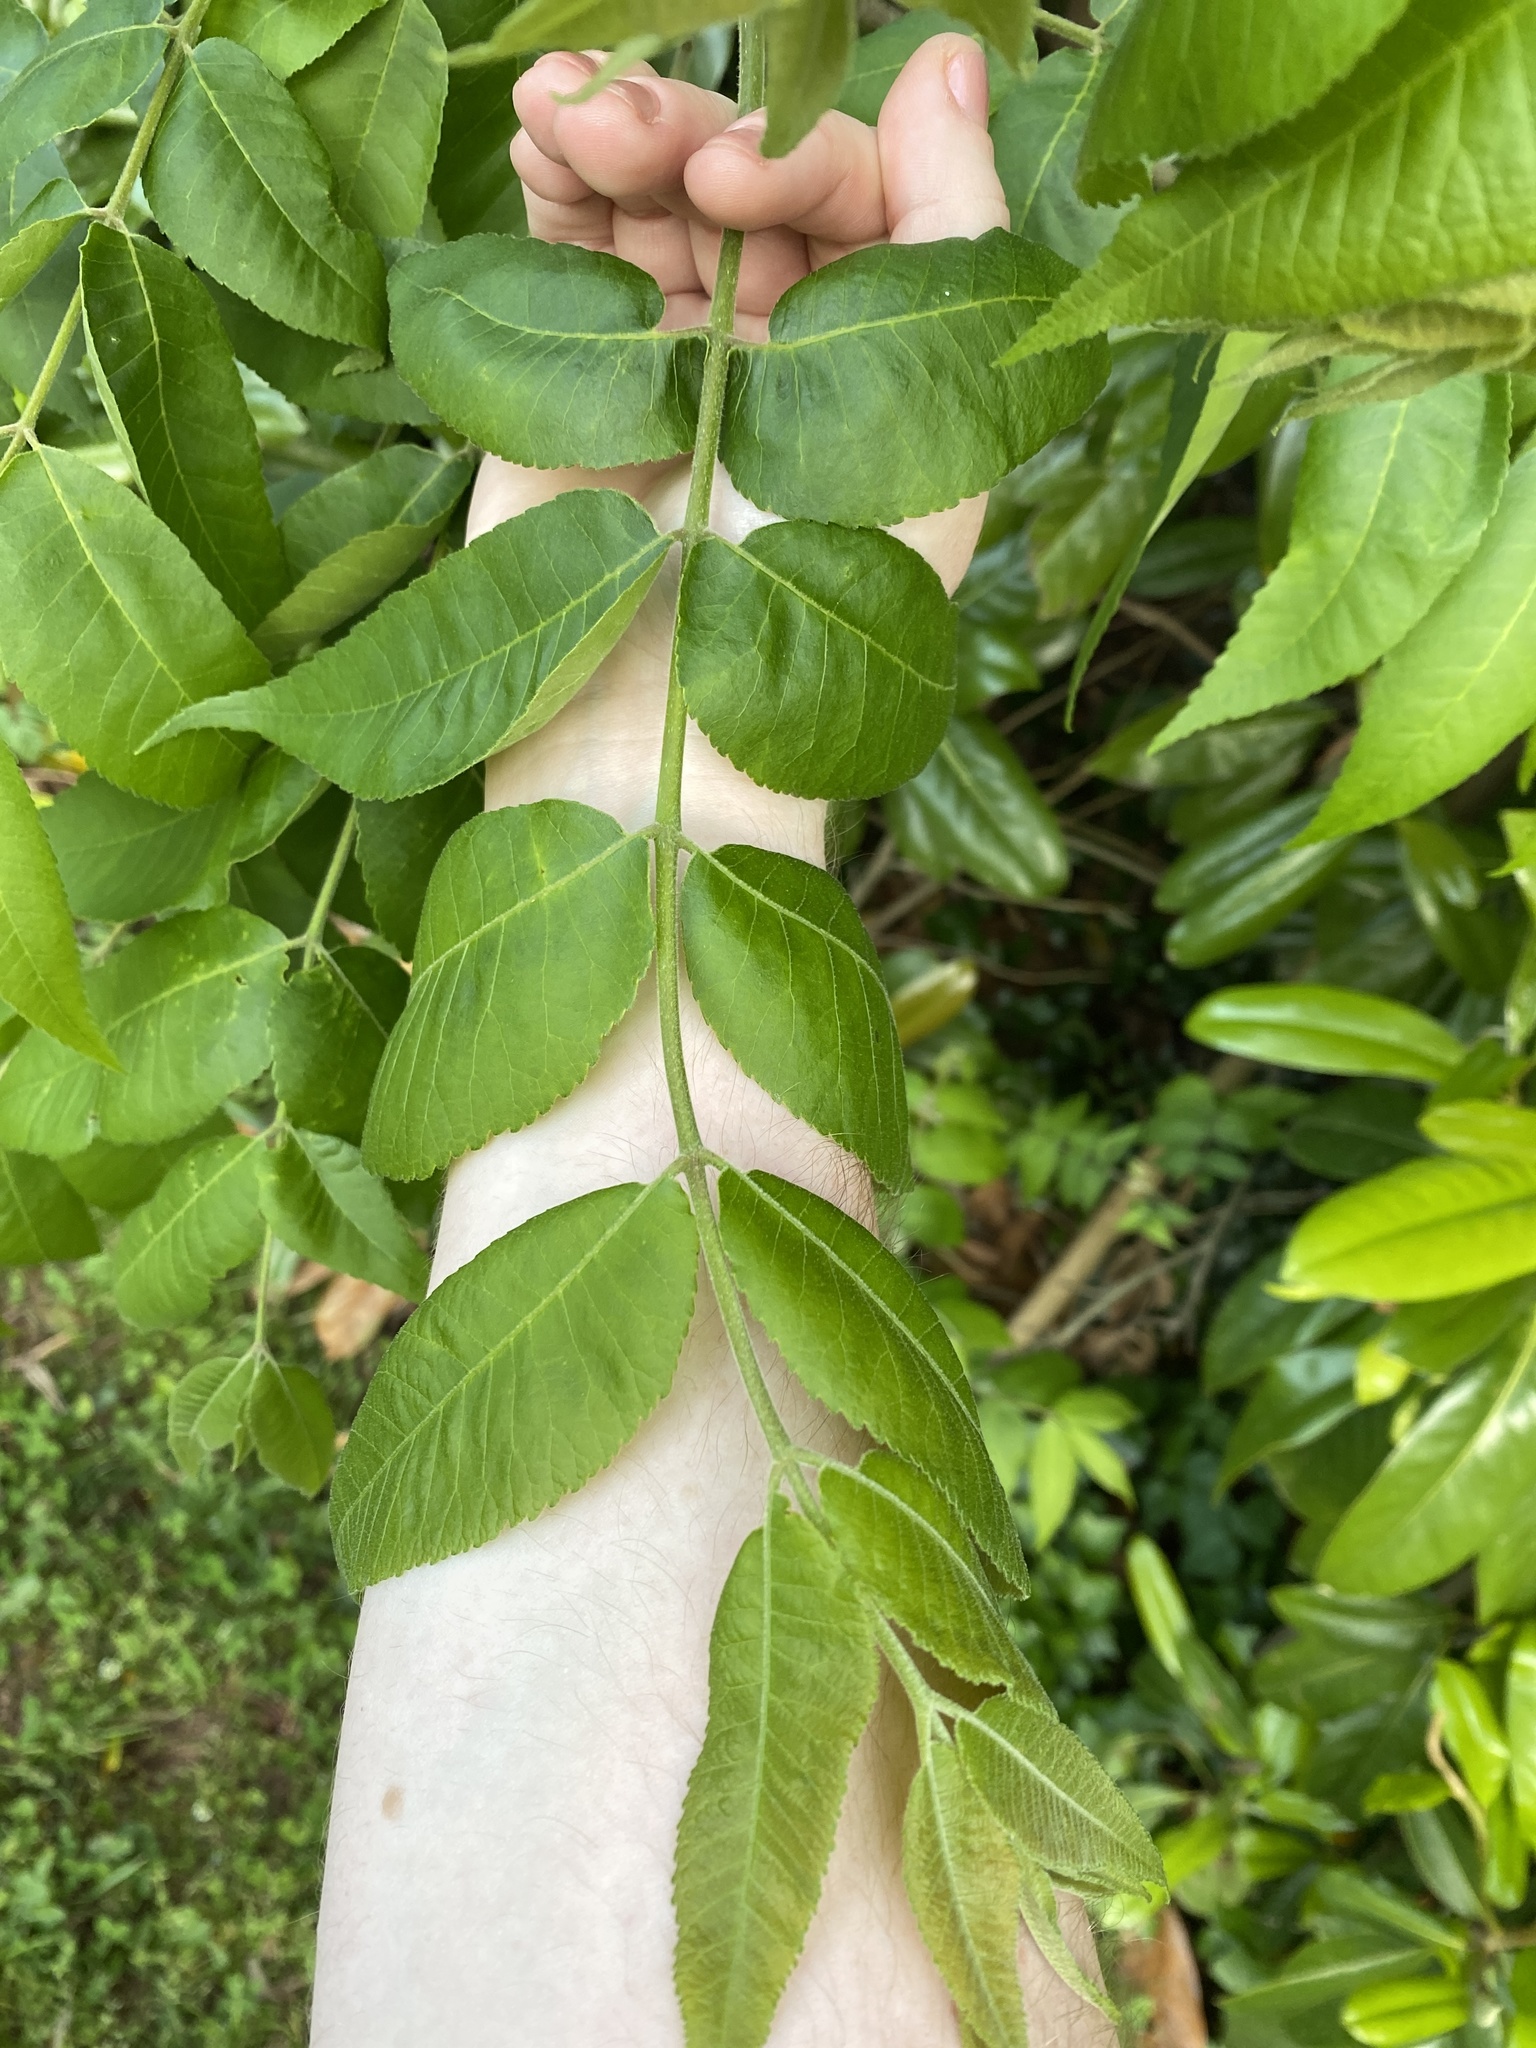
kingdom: Plantae
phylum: Tracheophyta
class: Magnoliopsida
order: Fagales
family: Juglandaceae
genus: Juglans
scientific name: Juglans nigra
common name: Black walnut
